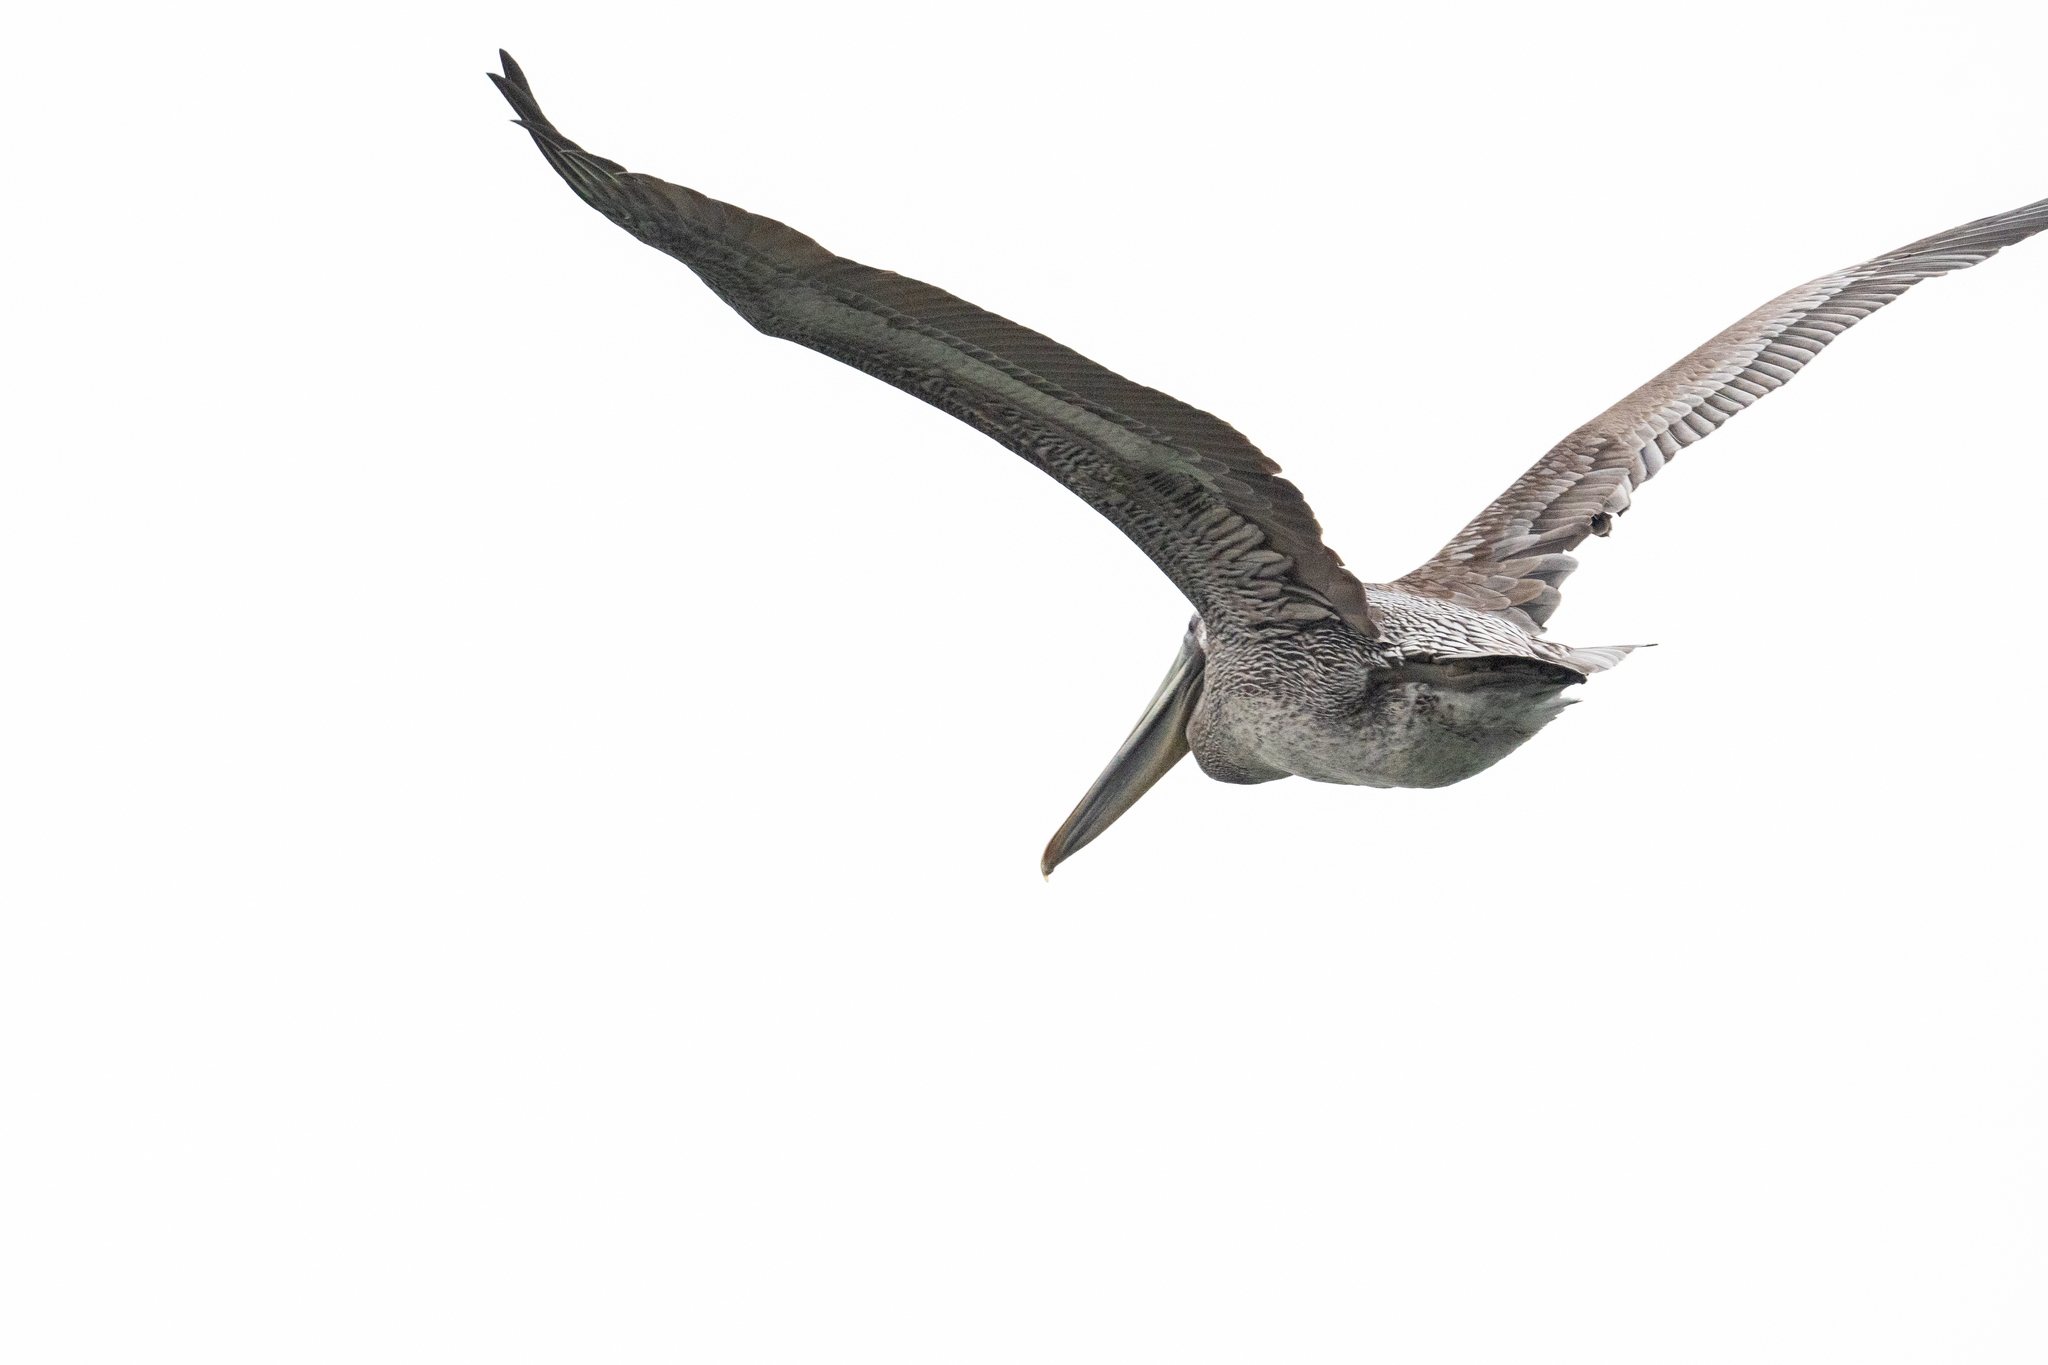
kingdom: Animalia
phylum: Chordata
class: Aves
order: Pelecaniformes
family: Pelecanidae
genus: Pelecanus
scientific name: Pelecanus occidentalis
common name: Brown pelican
